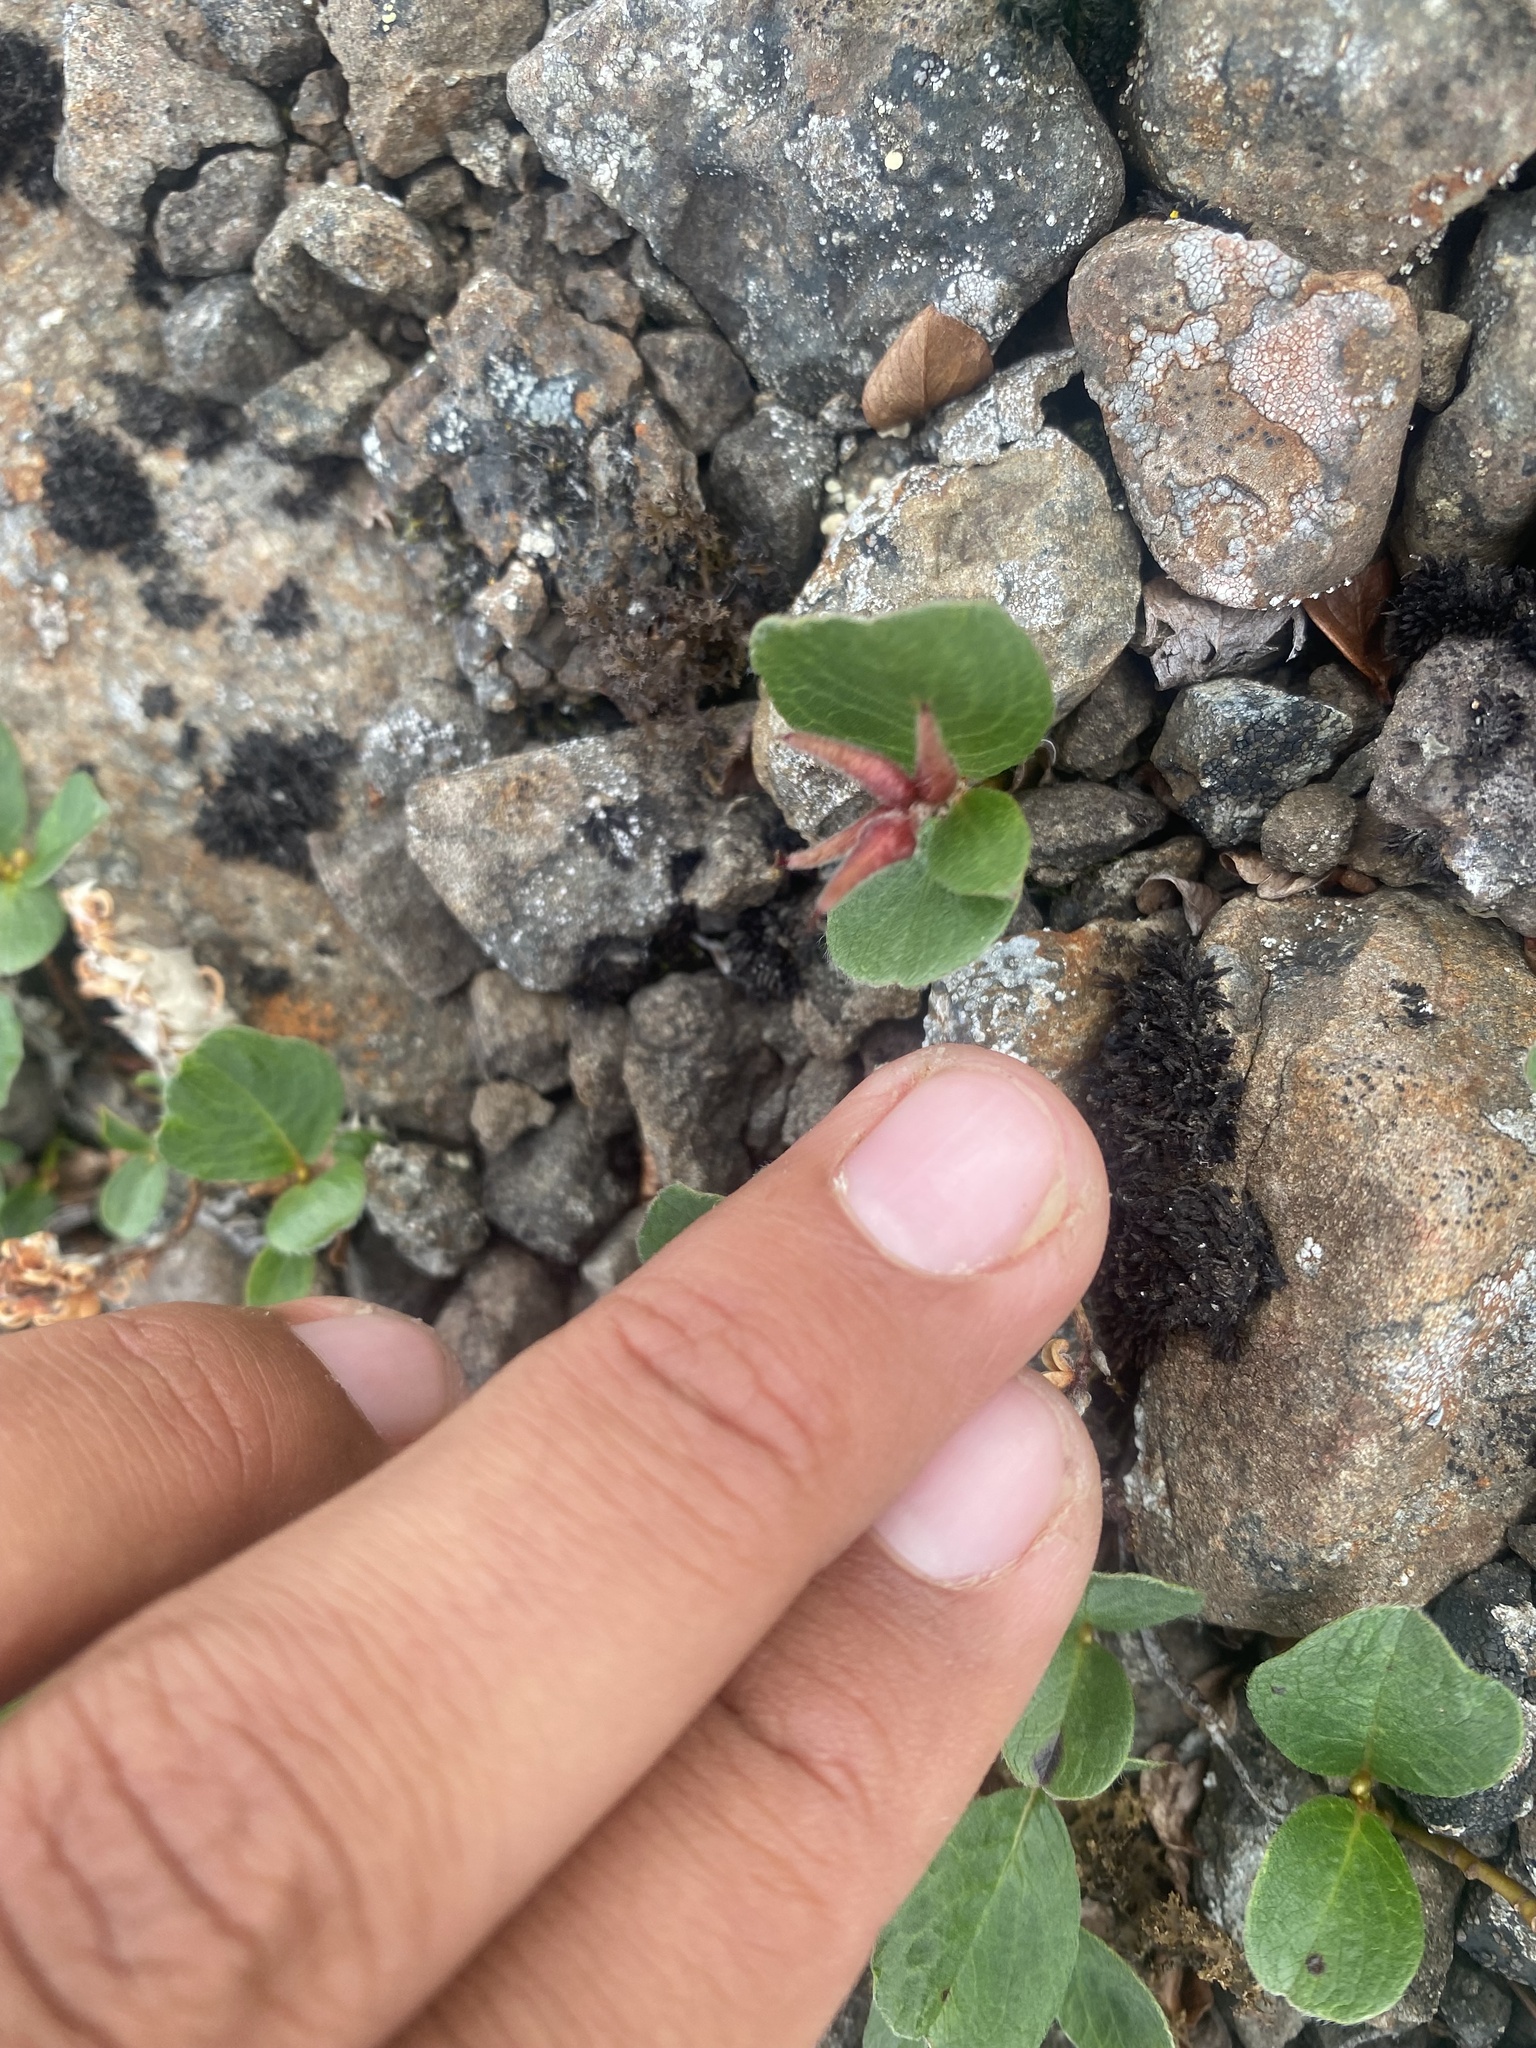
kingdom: Plantae
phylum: Tracheophyta
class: Magnoliopsida
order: Malpighiales
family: Salicaceae
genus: Salix
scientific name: Salix polaris
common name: Polar willow
